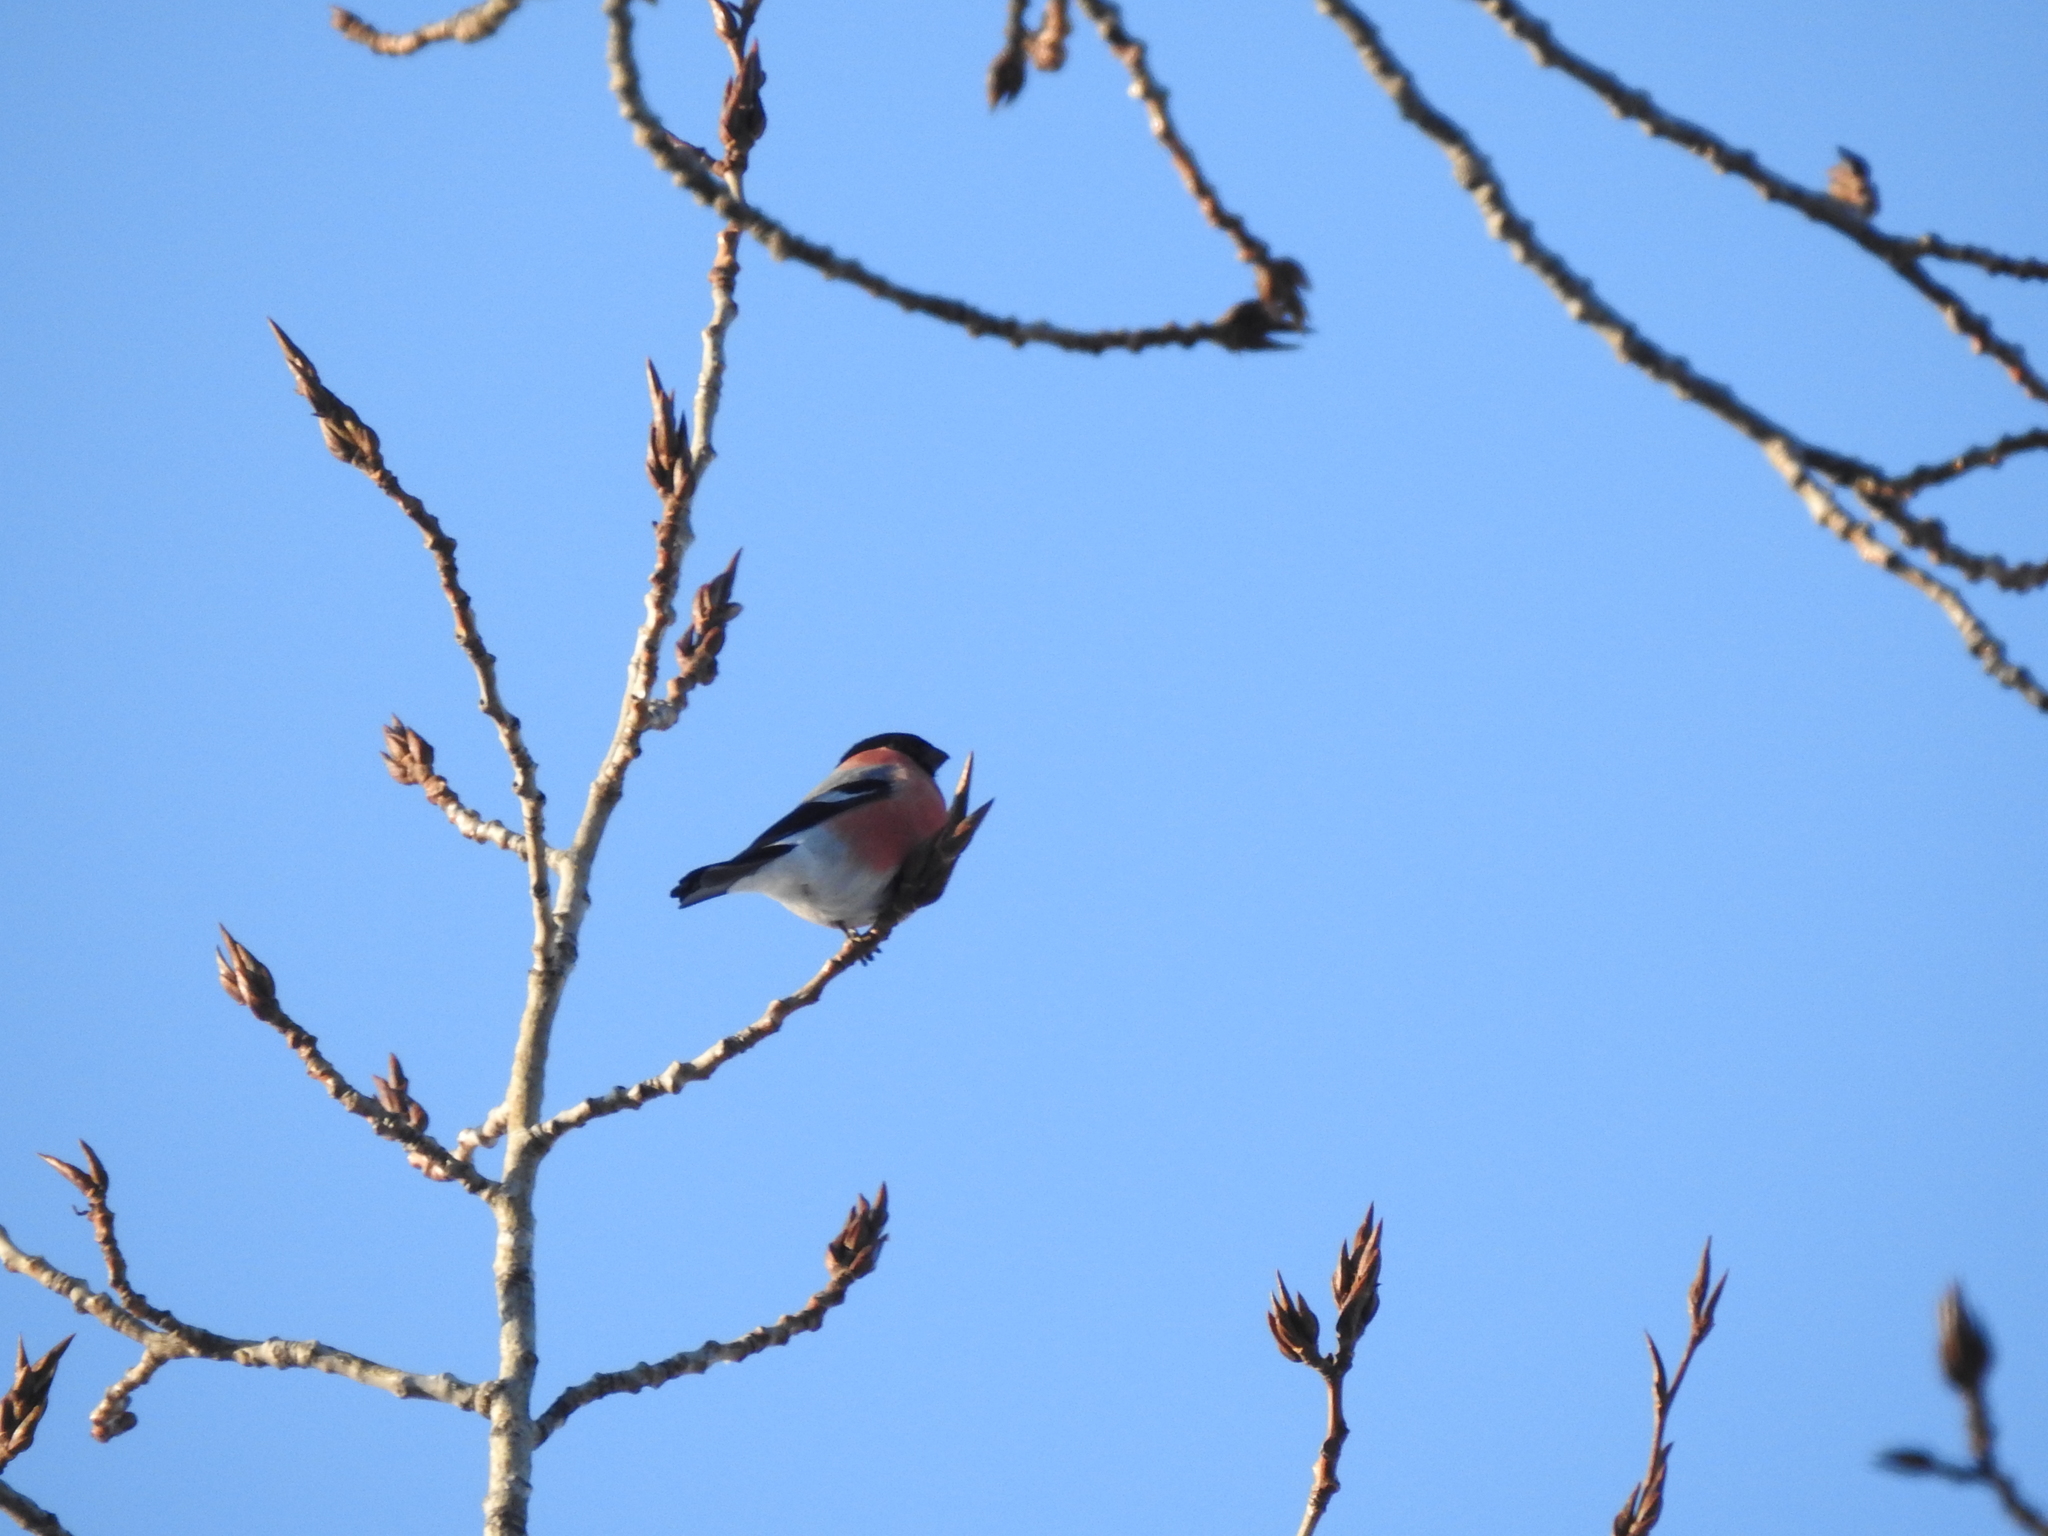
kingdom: Animalia
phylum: Chordata
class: Aves
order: Passeriformes
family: Fringillidae
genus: Pyrrhula
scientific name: Pyrrhula pyrrhula
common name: Eurasian bullfinch
